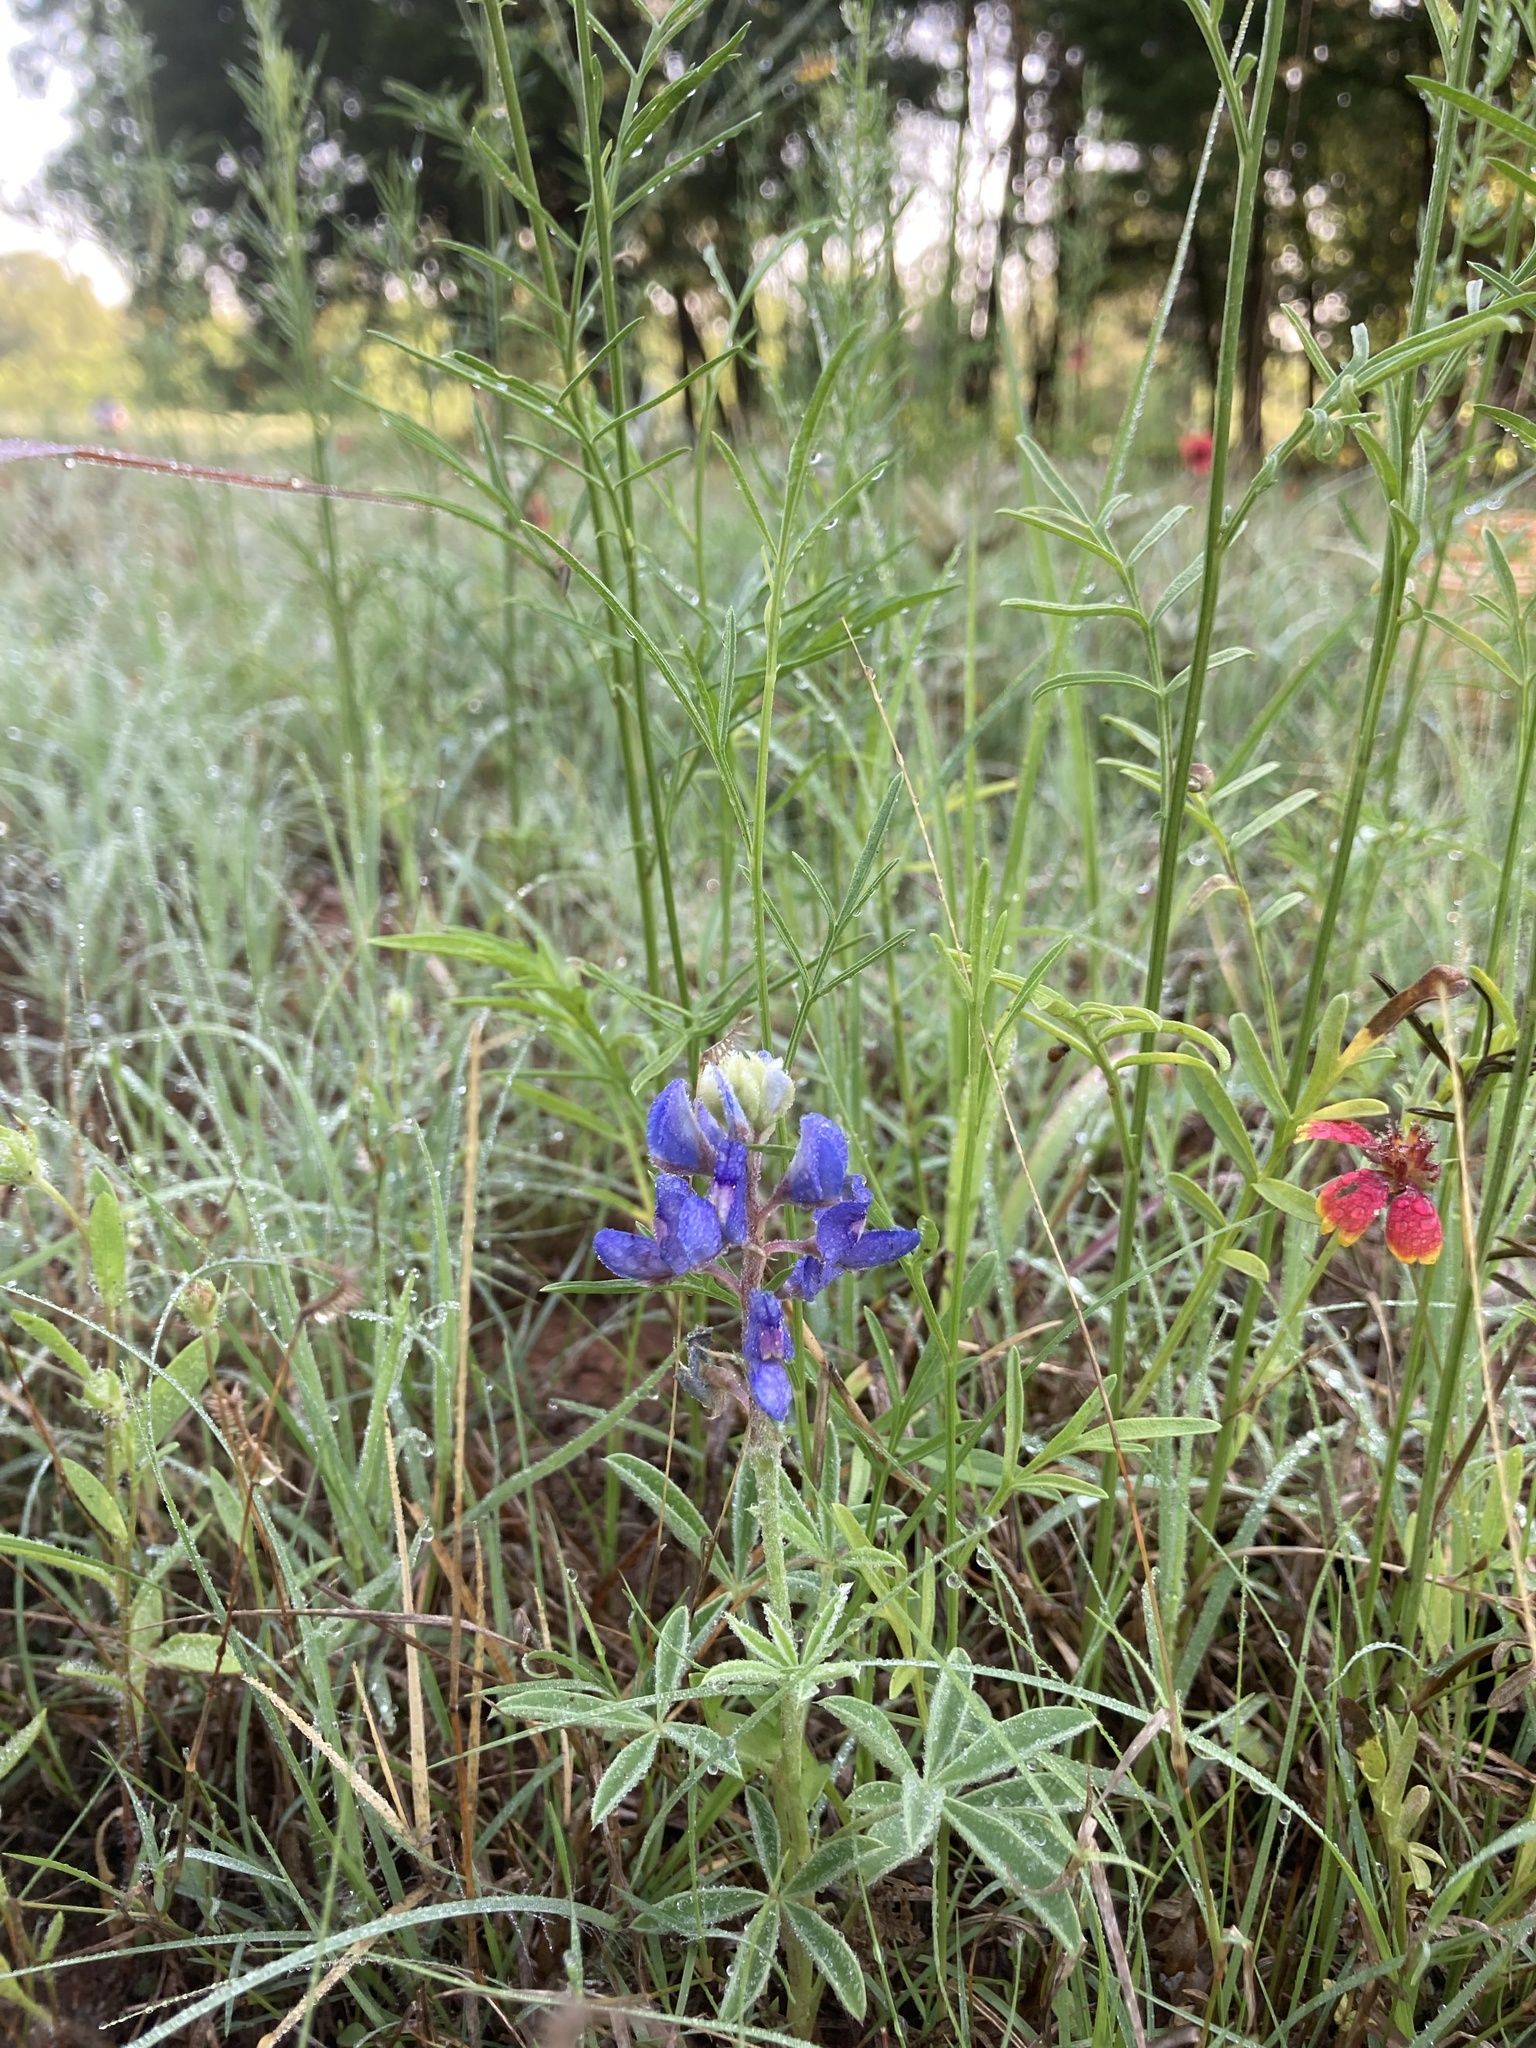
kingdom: Plantae
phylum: Tracheophyta
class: Magnoliopsida
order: Fabales
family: Fabaceae
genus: Lupinus
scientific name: Lupinus texensis
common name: Texas bluebonnet
